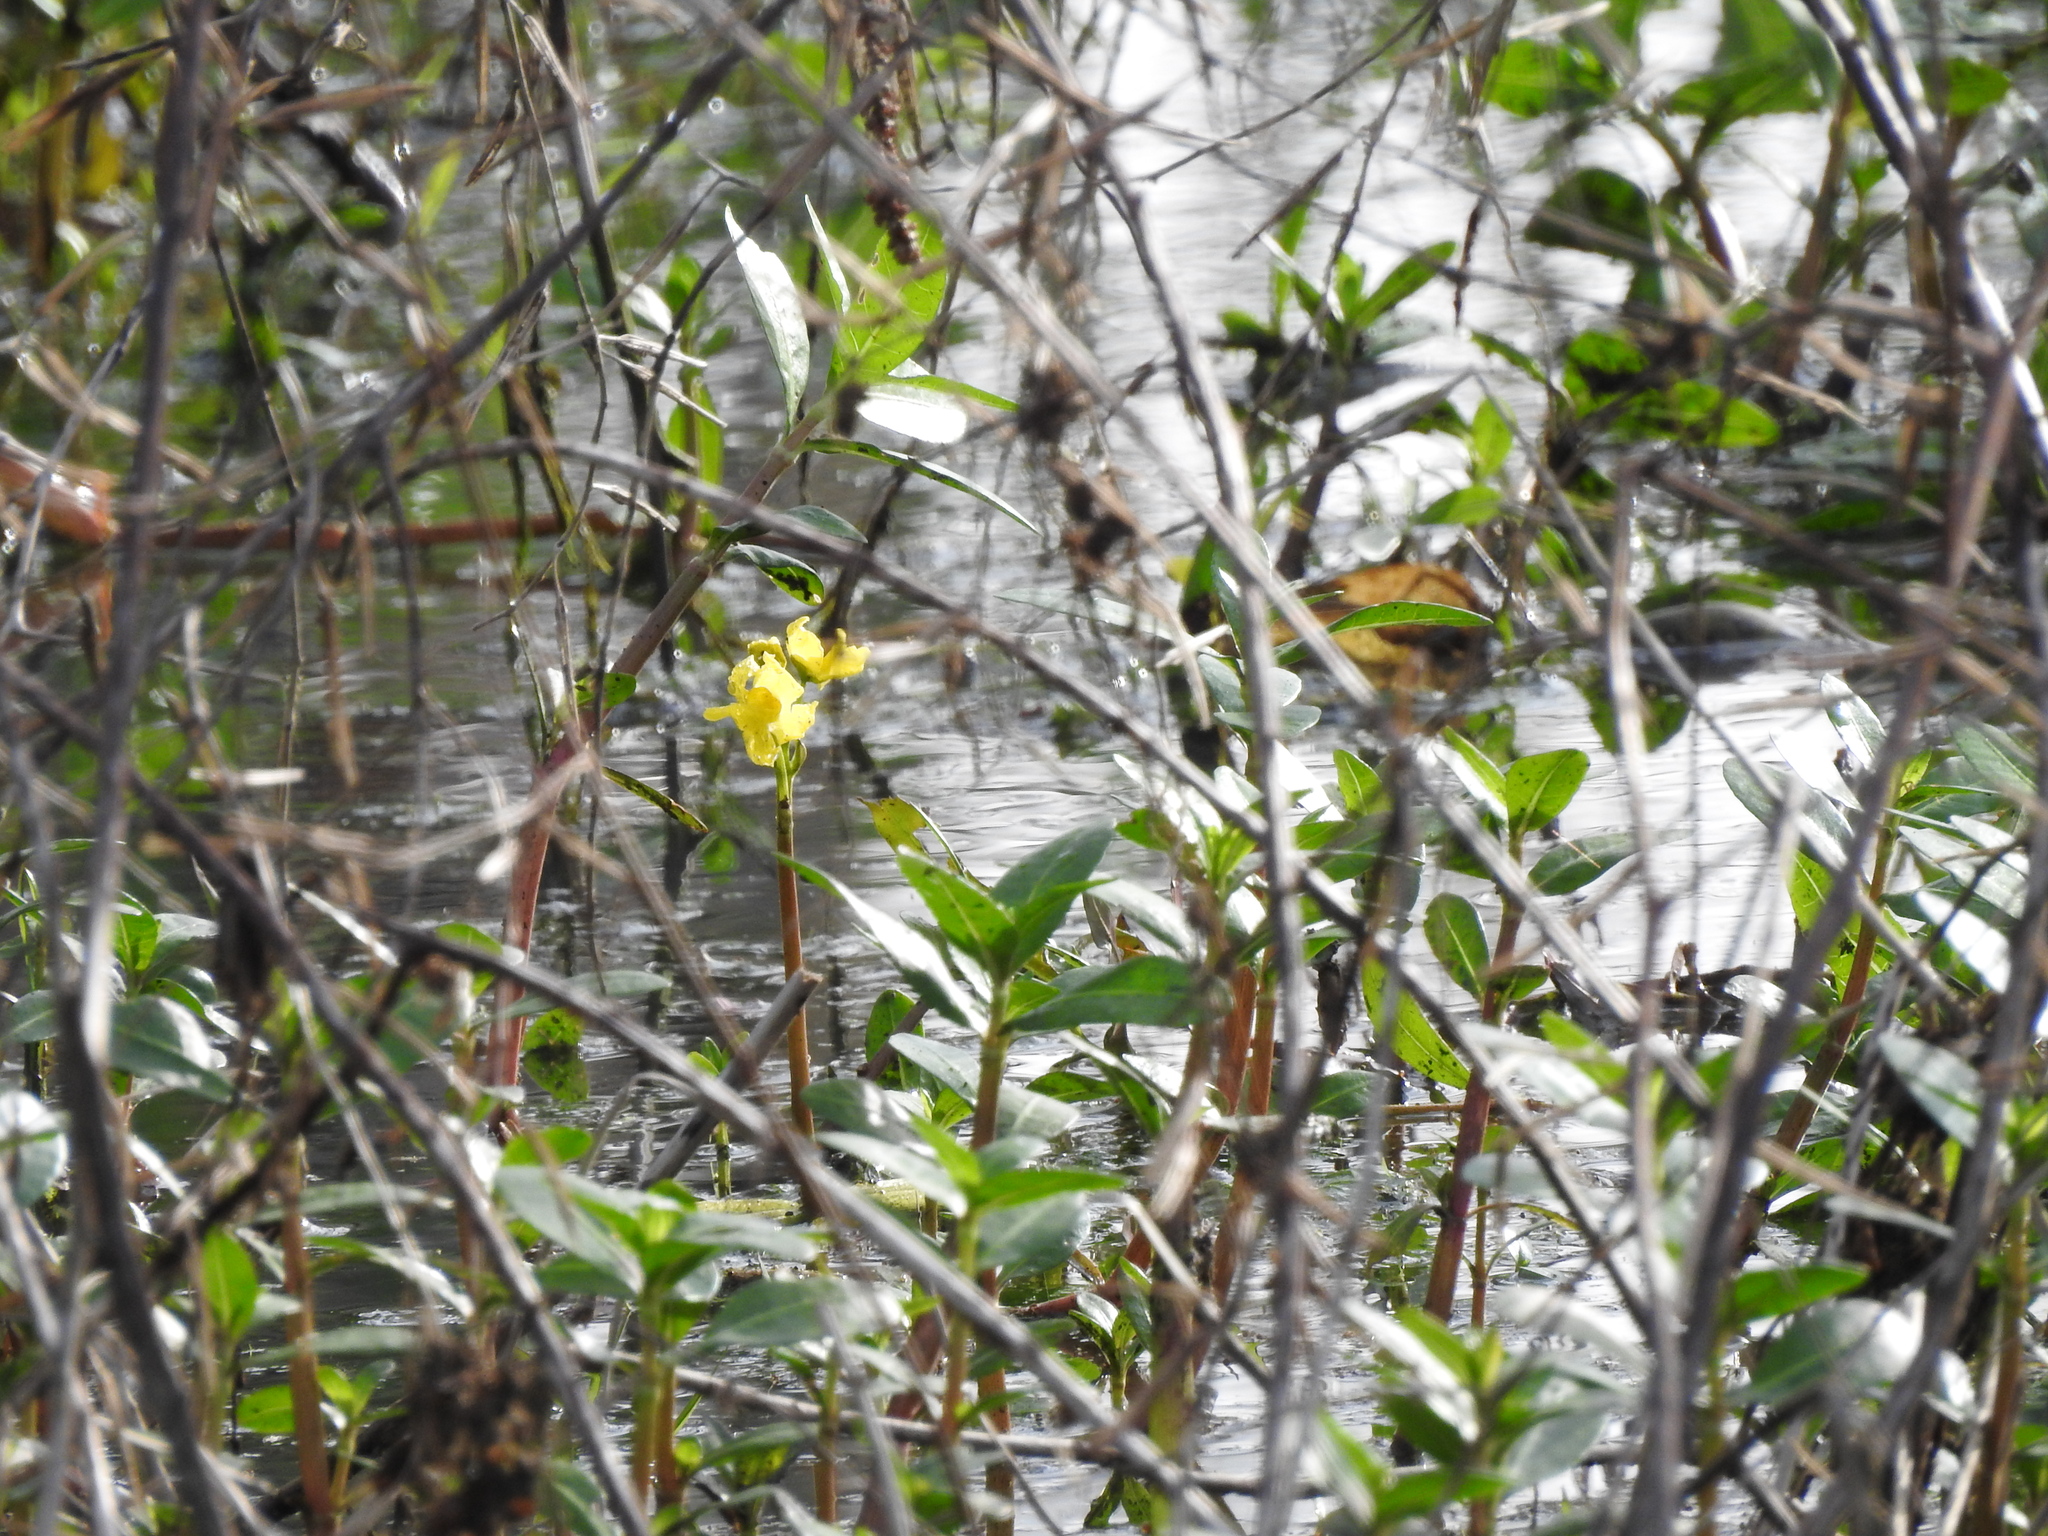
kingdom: Plantae
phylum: Tracheophyta
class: Magnoliopsida
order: Lamiales
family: Lentibulariaceae
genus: Utricularia
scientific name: Utricularia inflata
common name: Floating bladderwort
